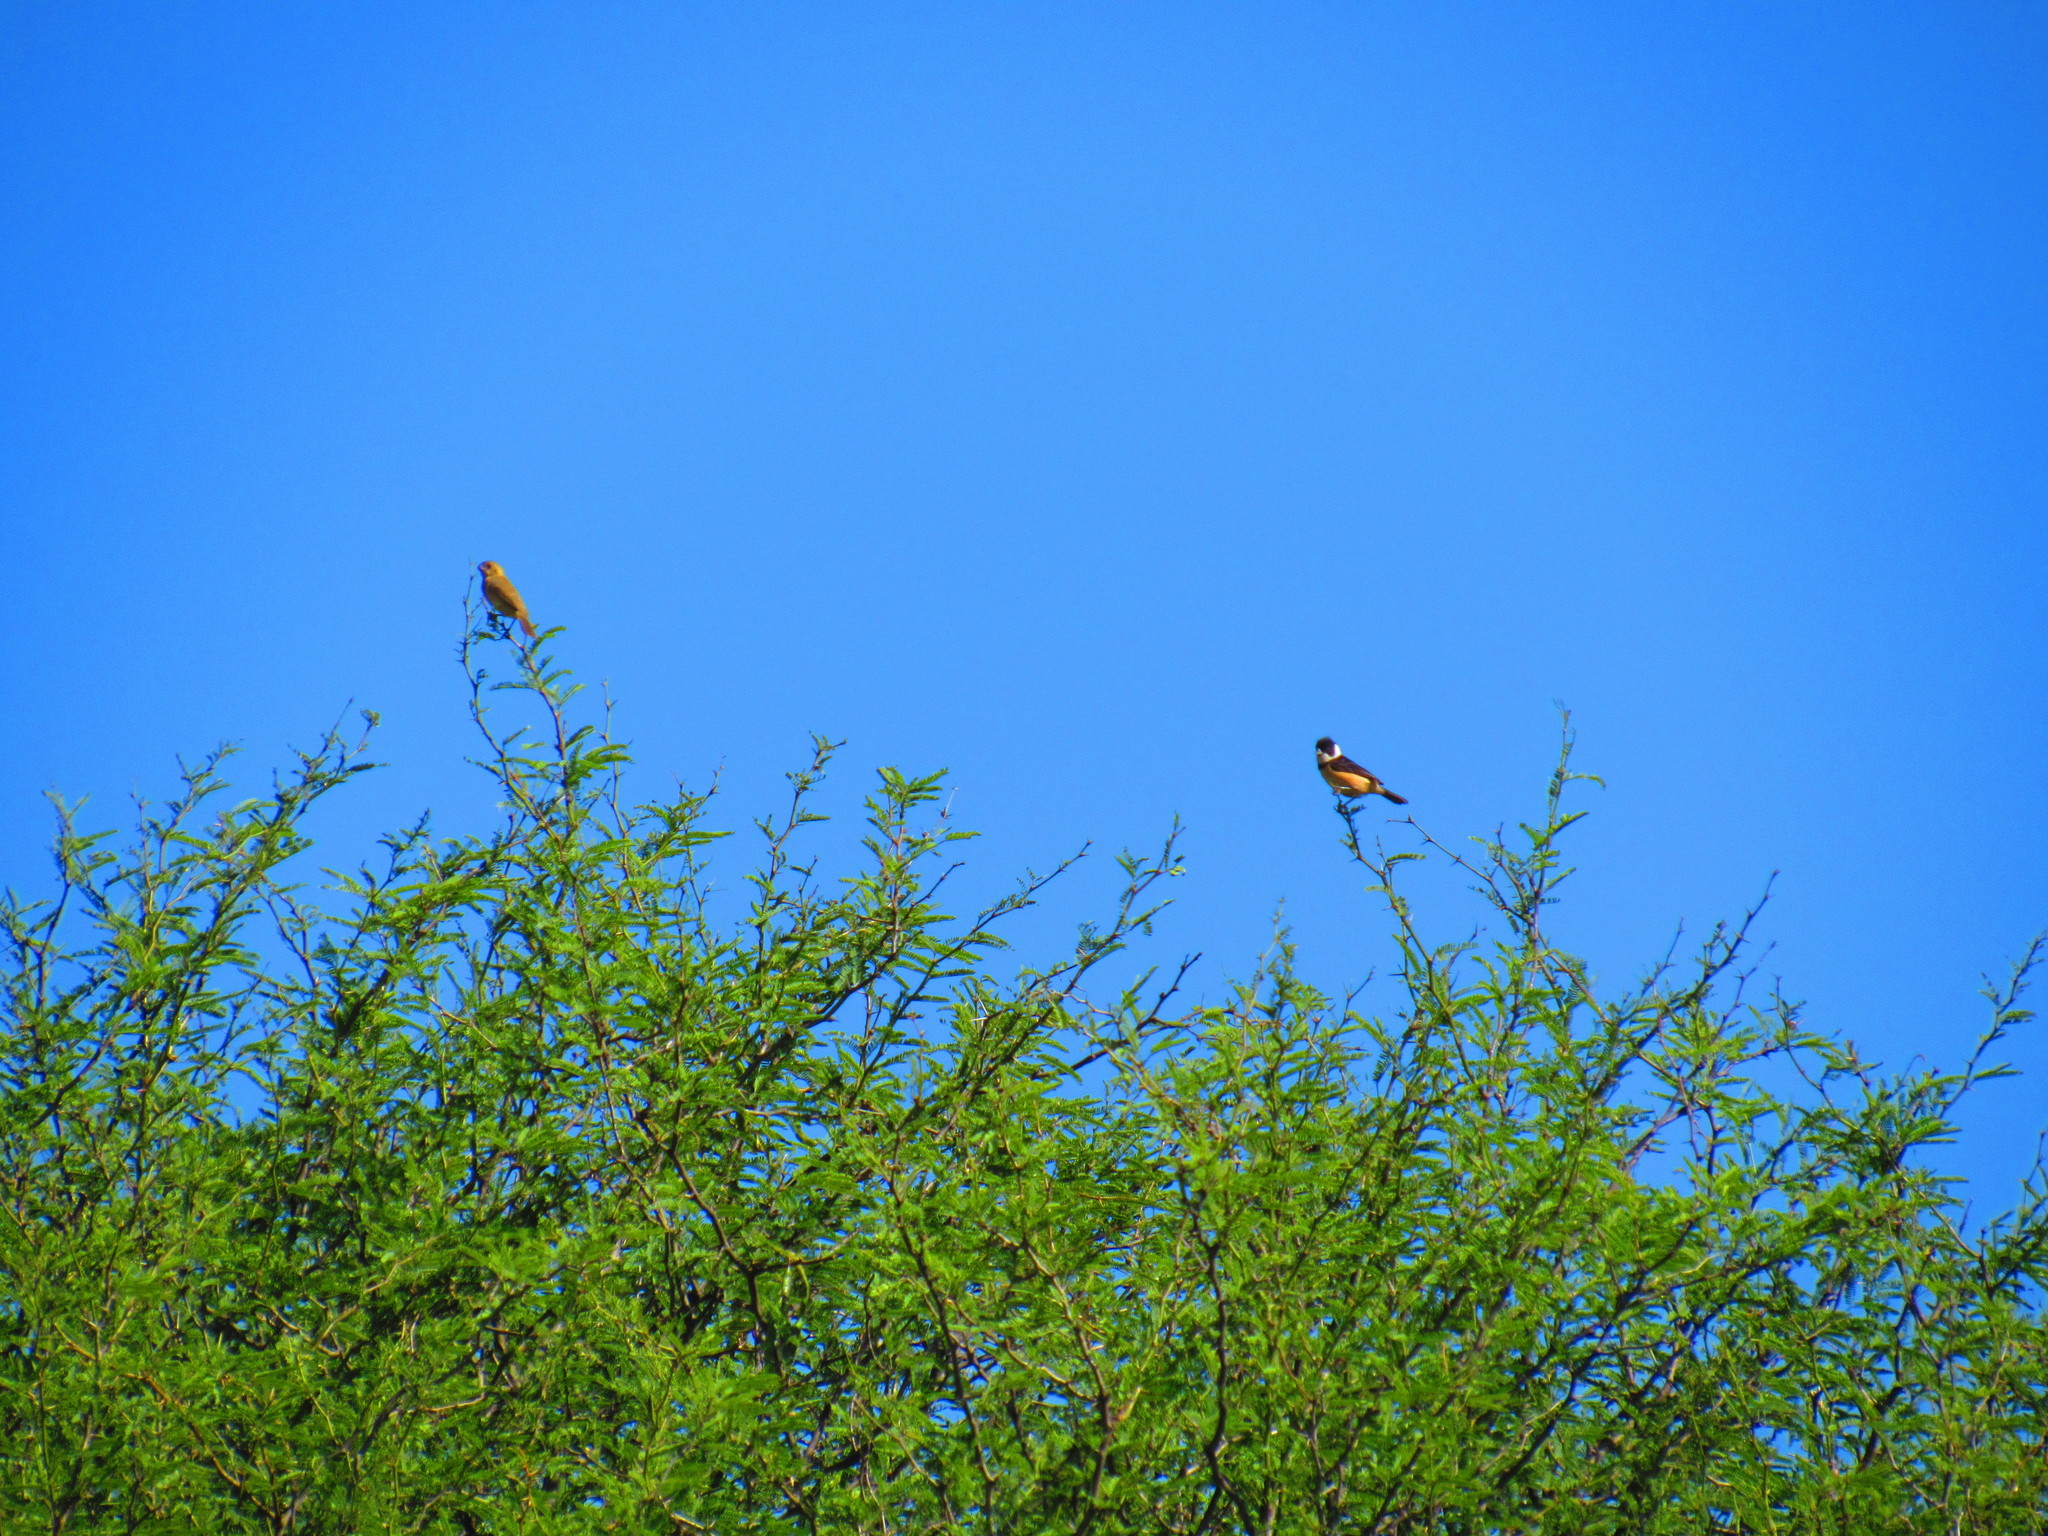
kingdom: Plantae
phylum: Tracheophyta
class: Magnoliopsida
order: Fabales
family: Fabaceae
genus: Prosopis
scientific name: Prosopis laevigata
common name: Smooth mesquite
